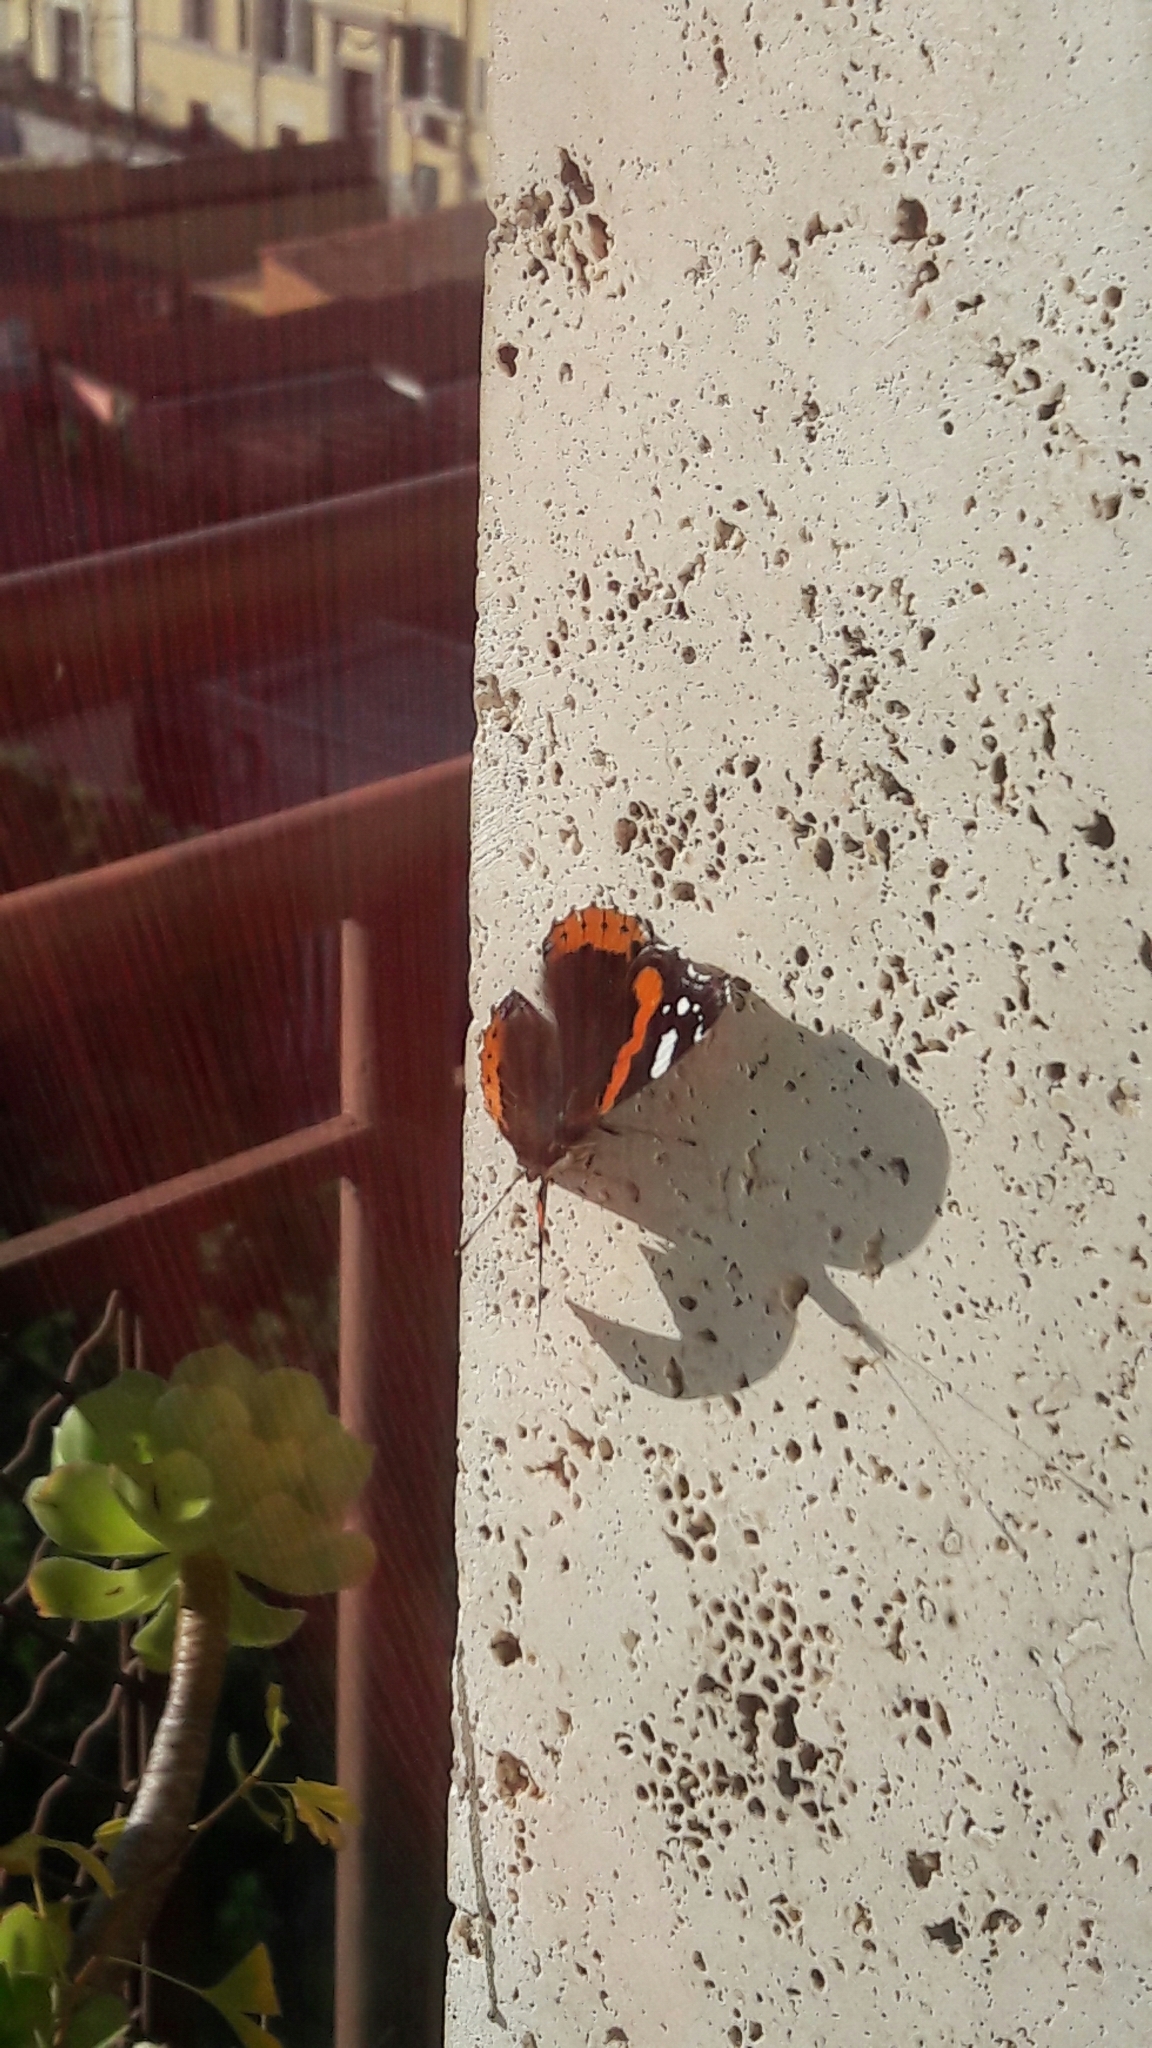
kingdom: Animalia
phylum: Arthropoda
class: Insecta
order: Lepidoptera
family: Nymphalidae
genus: Vanessa
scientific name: Vanessa atalanta
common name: Red admiral
